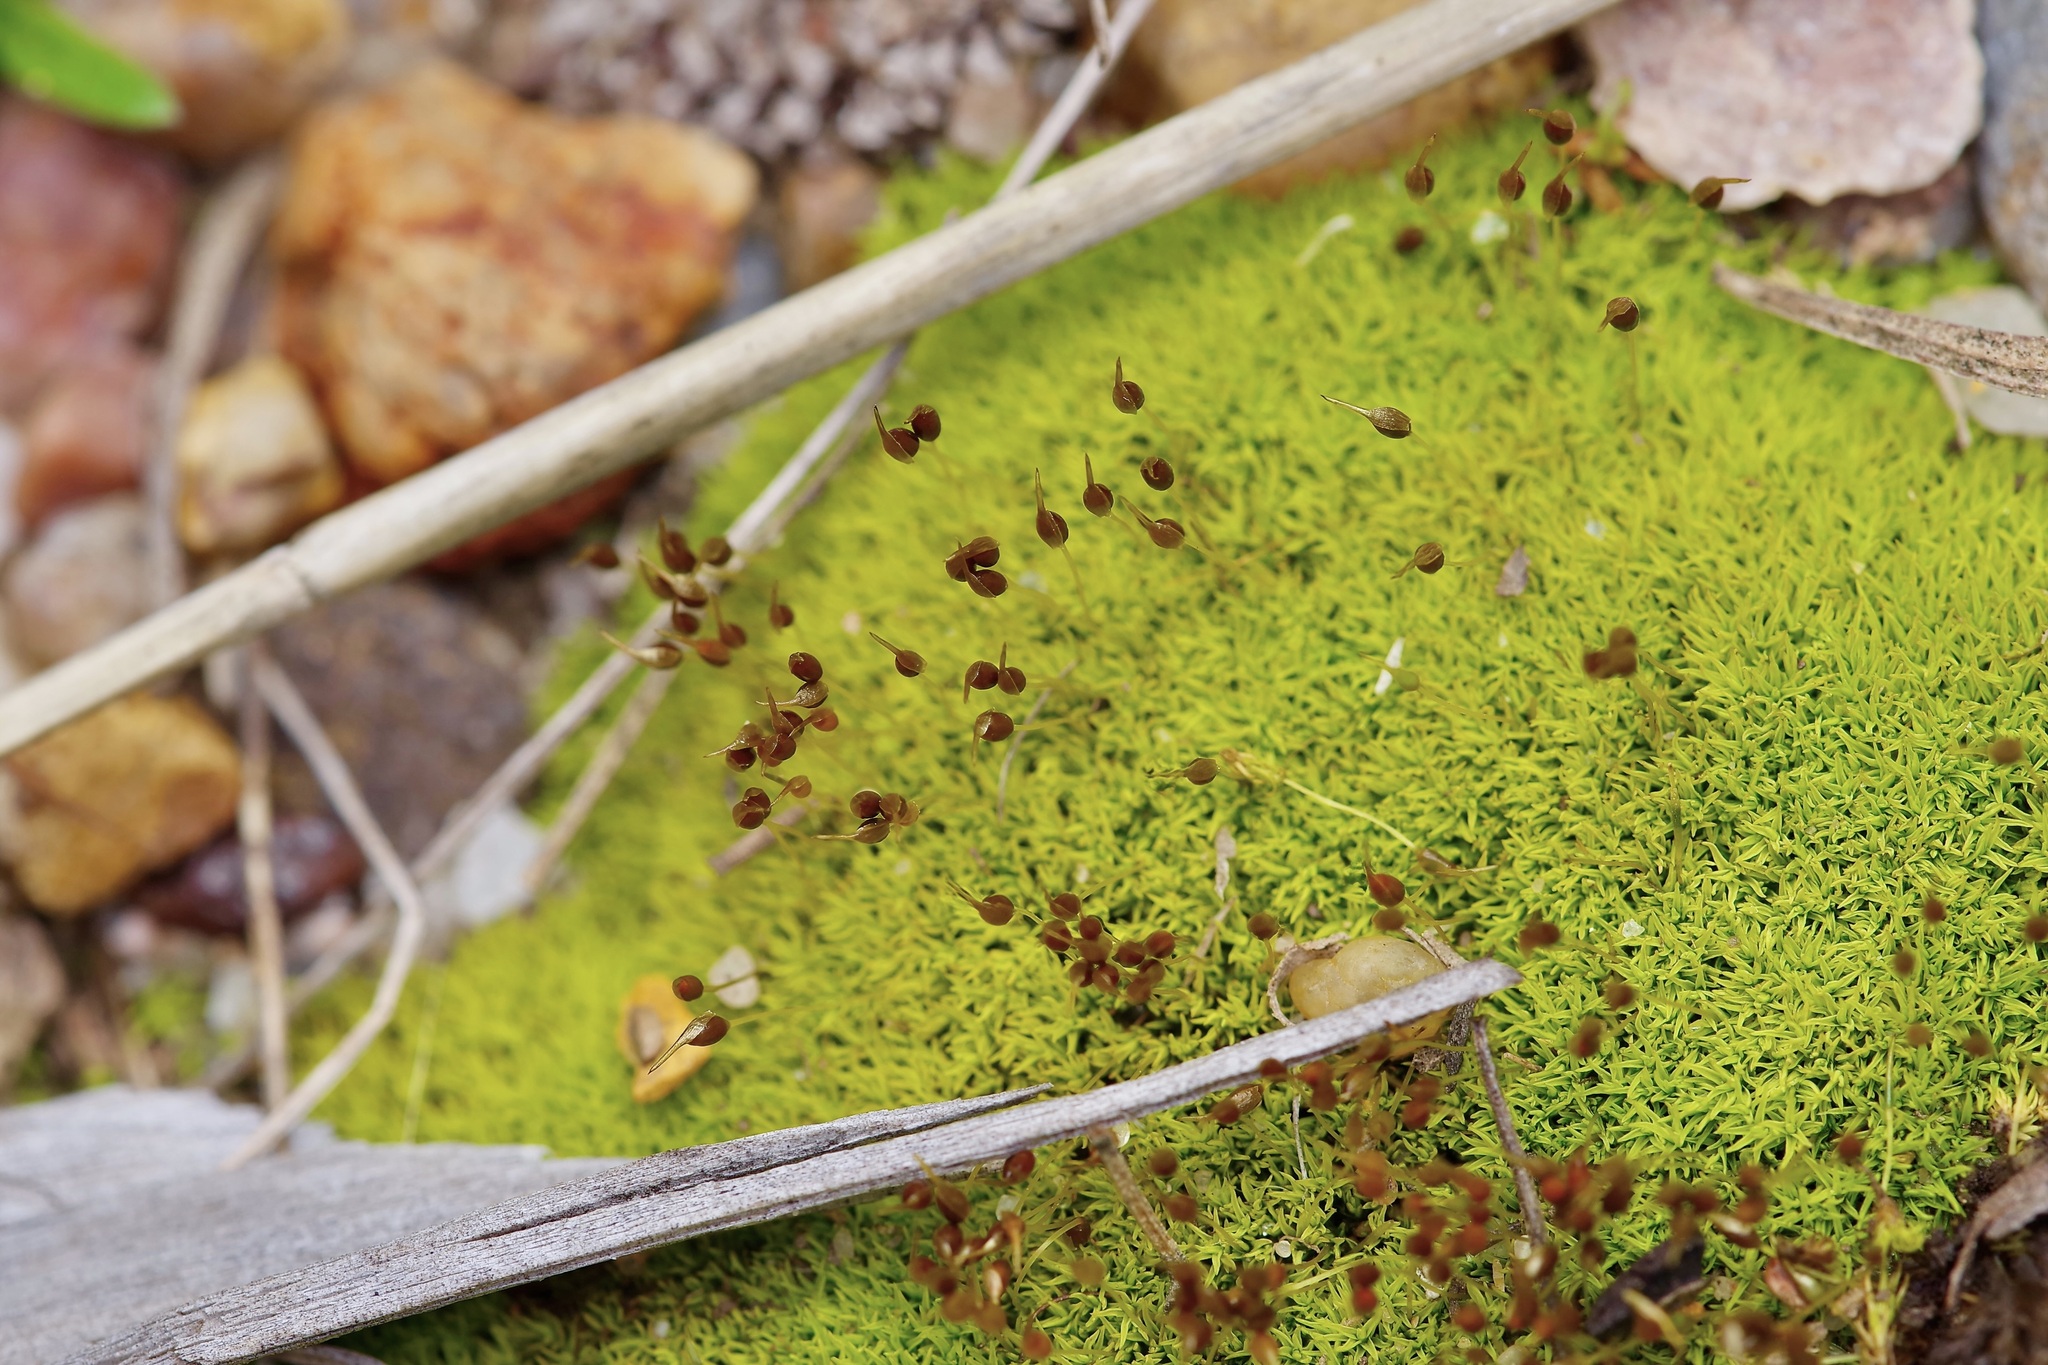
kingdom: Plantae
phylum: Bryophyta
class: Bryopsida
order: Pottiales
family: Pottiaceae
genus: Weissia
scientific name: Weissia controversa
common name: Green-tufted stubble moss
